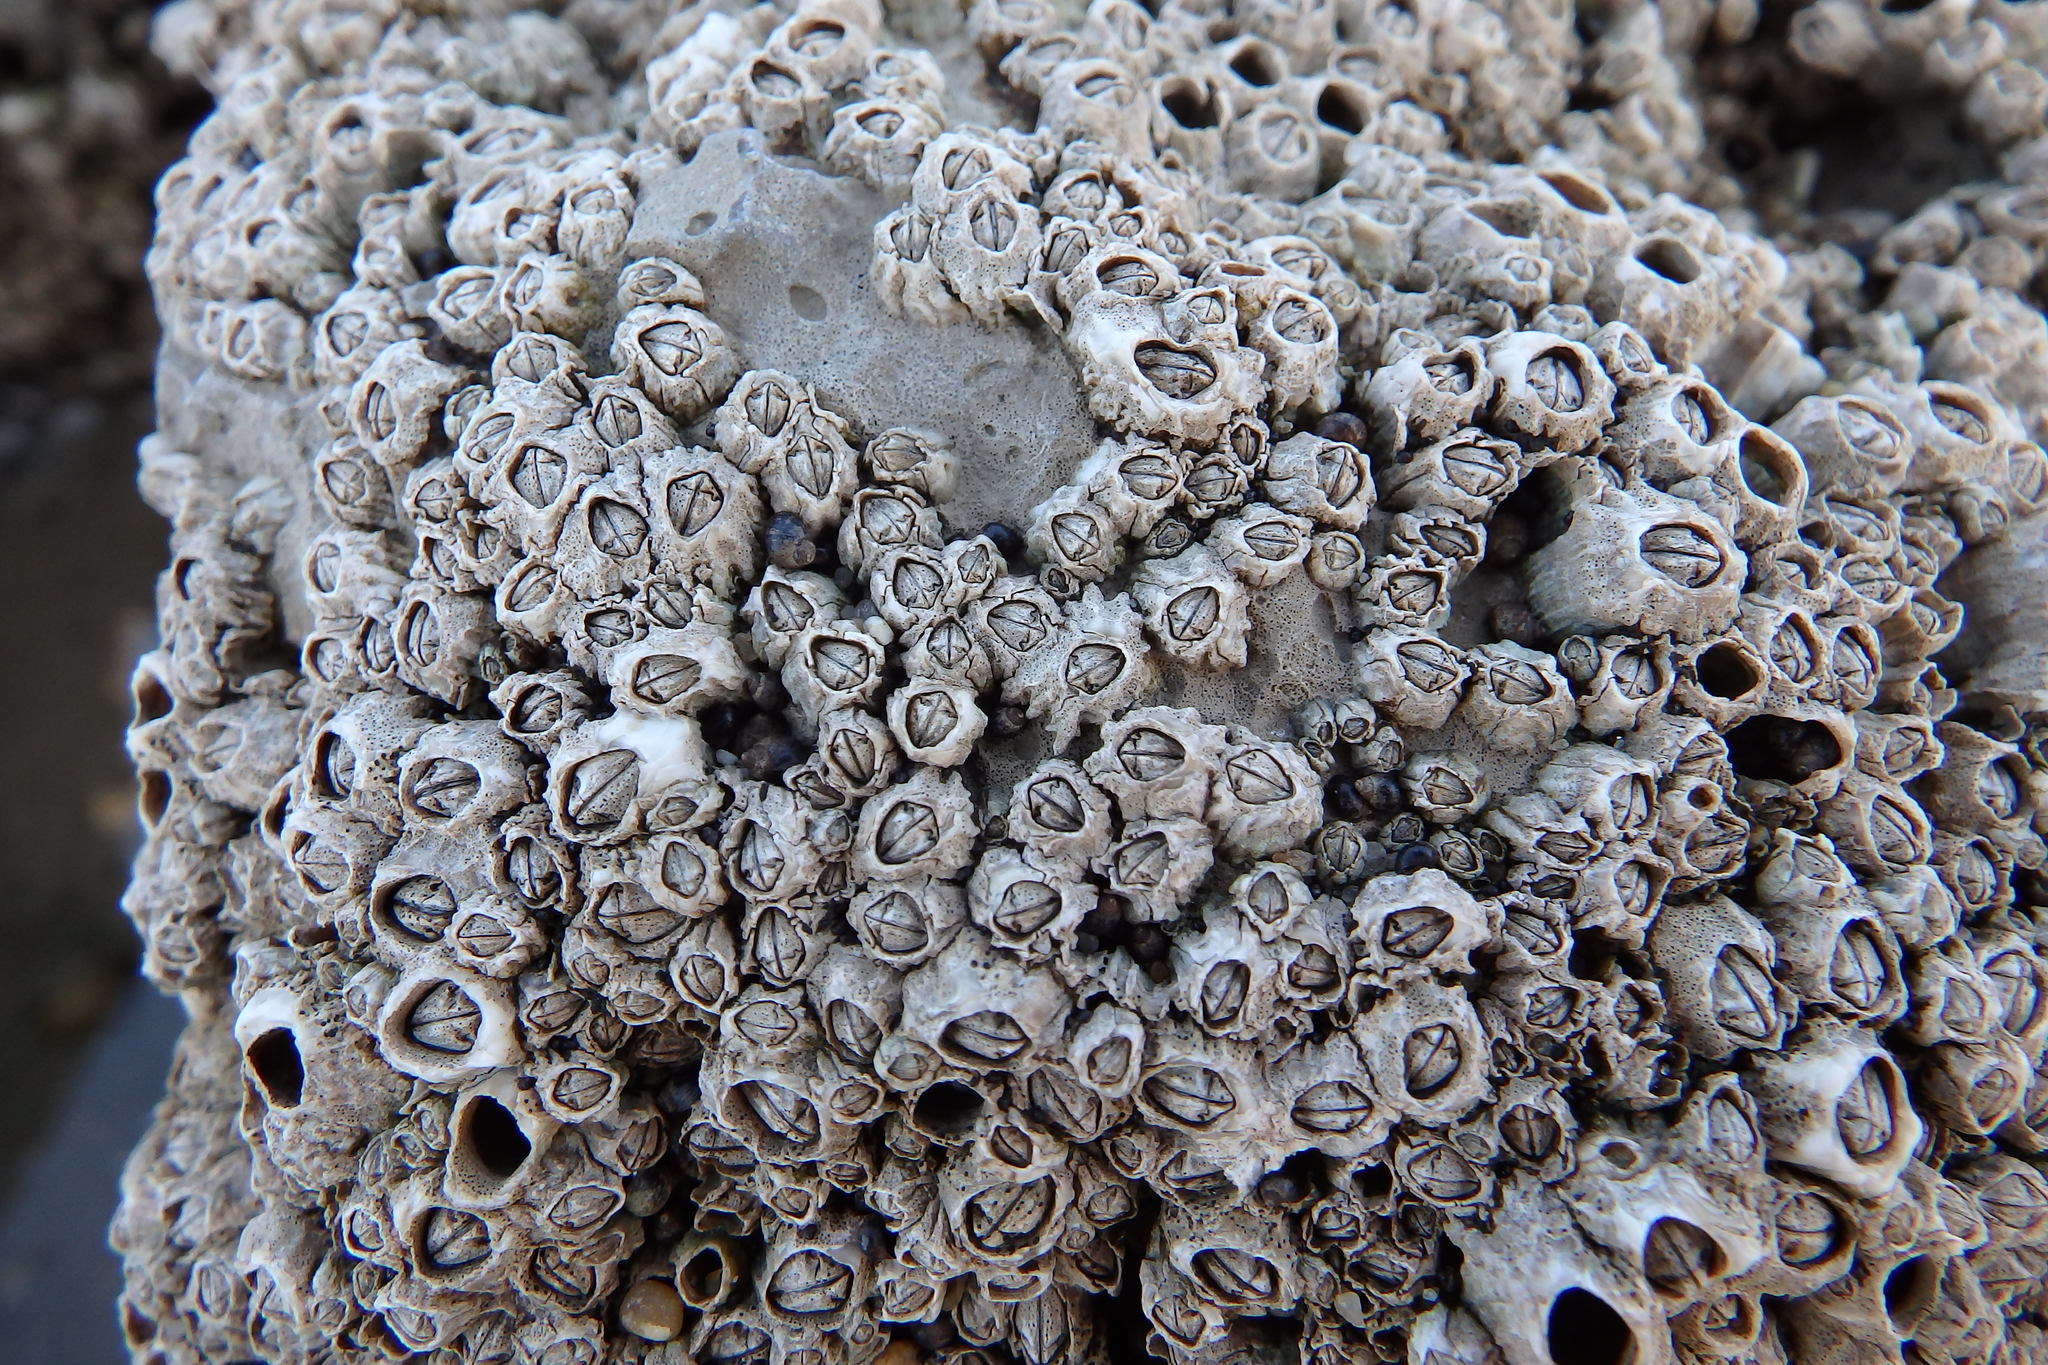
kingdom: Animalia
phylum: Arthropoda
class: Maxillopoda
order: Sessilia
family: Chthamalidae
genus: Chthamalus
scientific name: Chthamalus montagui
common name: Montagu's stellate barnacle
